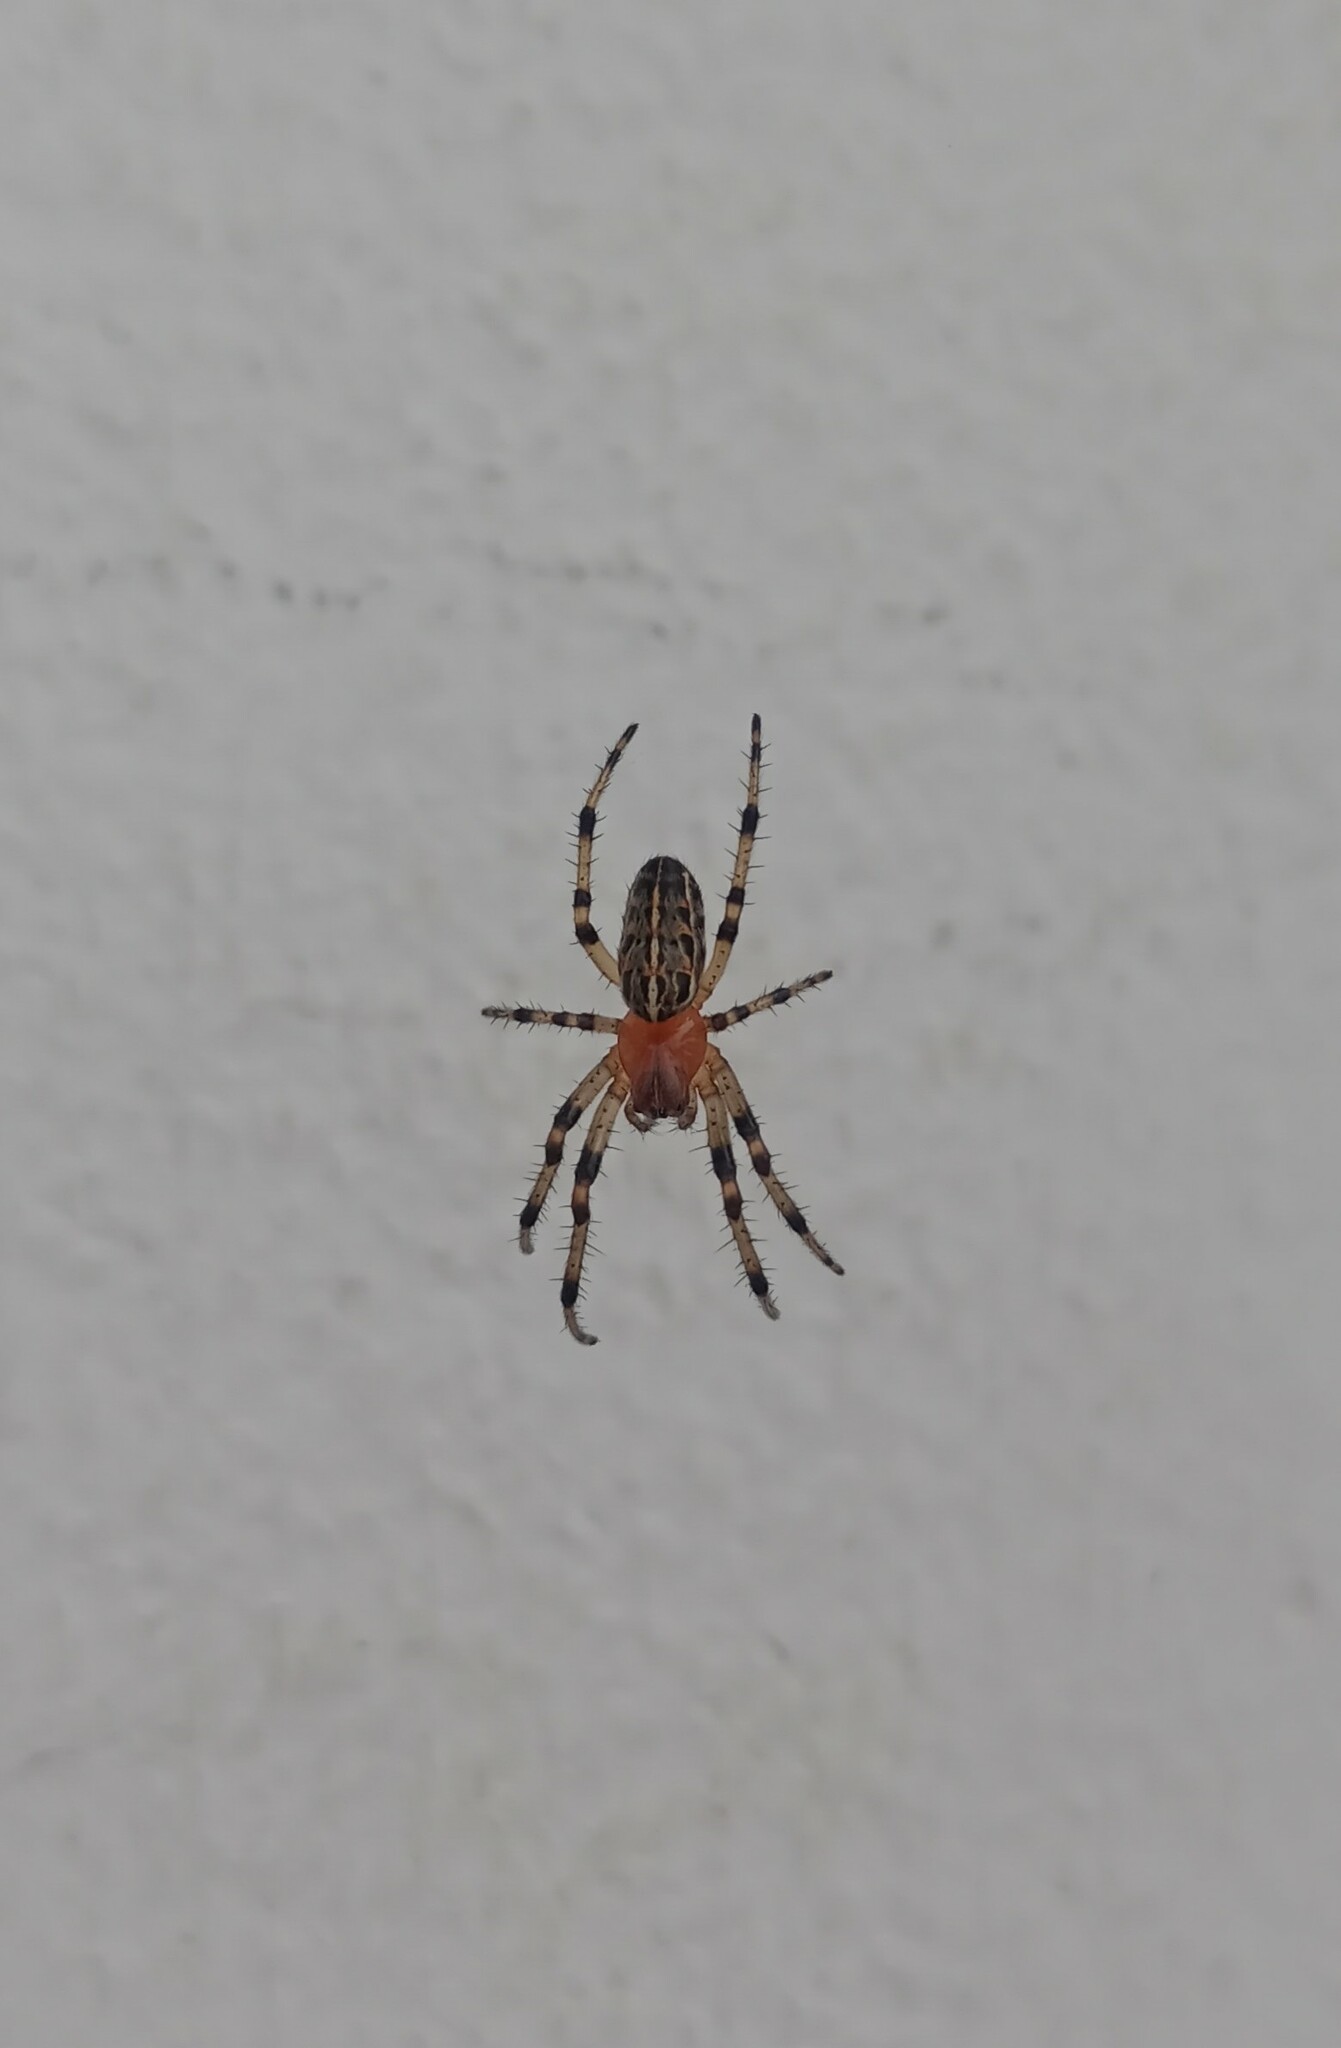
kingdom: Animalia
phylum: Arthropoda
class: Arachnida
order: Araneae
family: Araneidae
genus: Alpaida
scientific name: Alpaida veniliae
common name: Orb weavers
